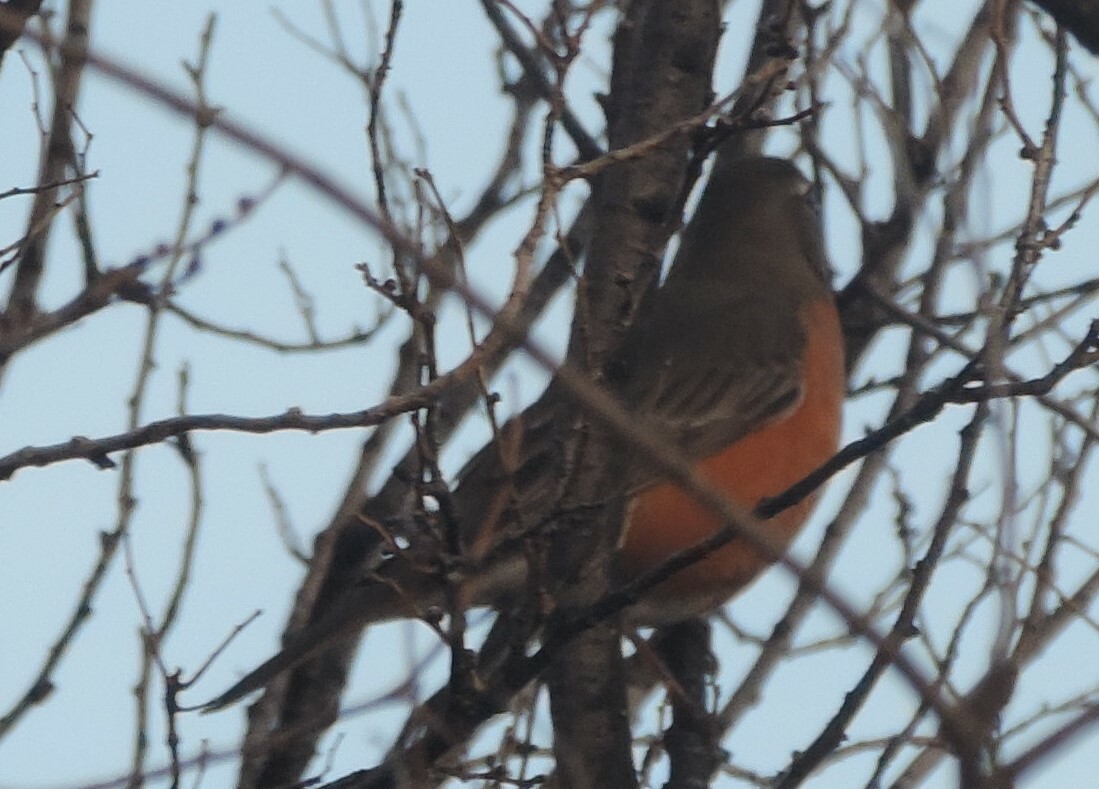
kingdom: Animalia
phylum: Chordata
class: Aves
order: Passeriformes
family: Turdidae
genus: Turdus
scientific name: Turdus migratorius
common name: American robin
